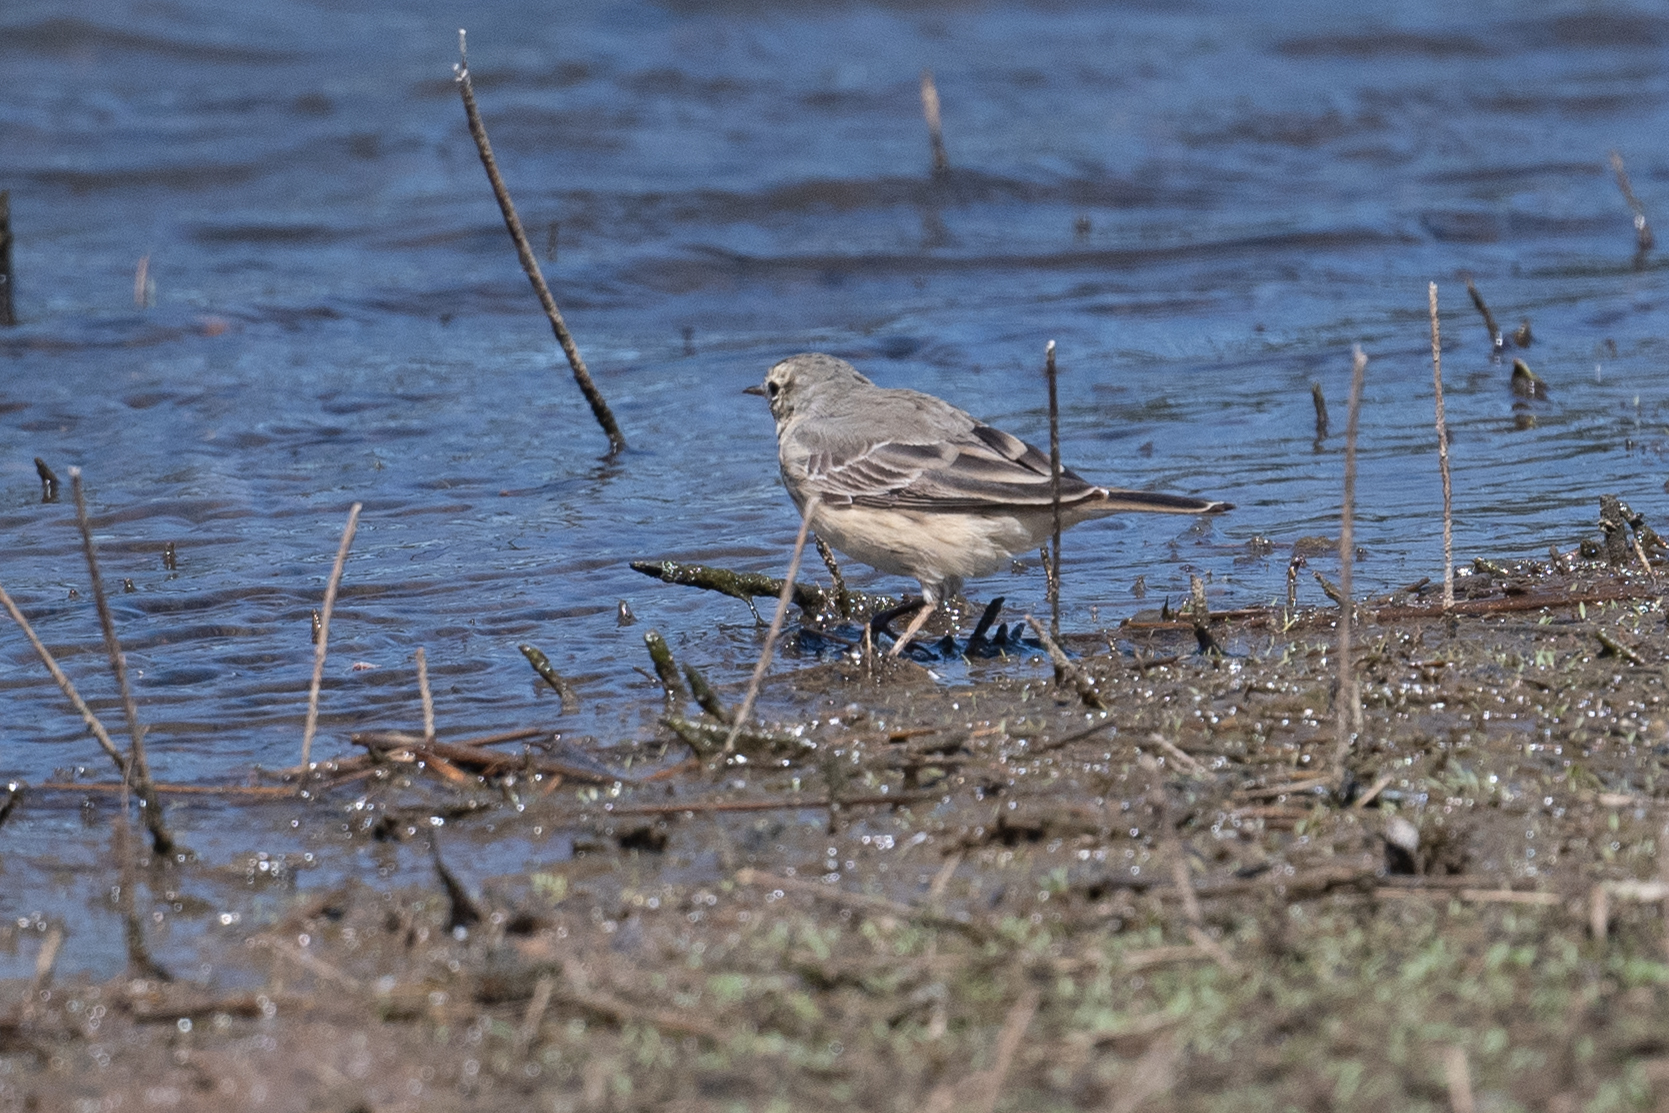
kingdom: Animalia
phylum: Chordata
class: Aves
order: Passeriformes
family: Motacillidae
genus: Anthus
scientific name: Anthus rubescens
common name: Buff-bellied pipit
